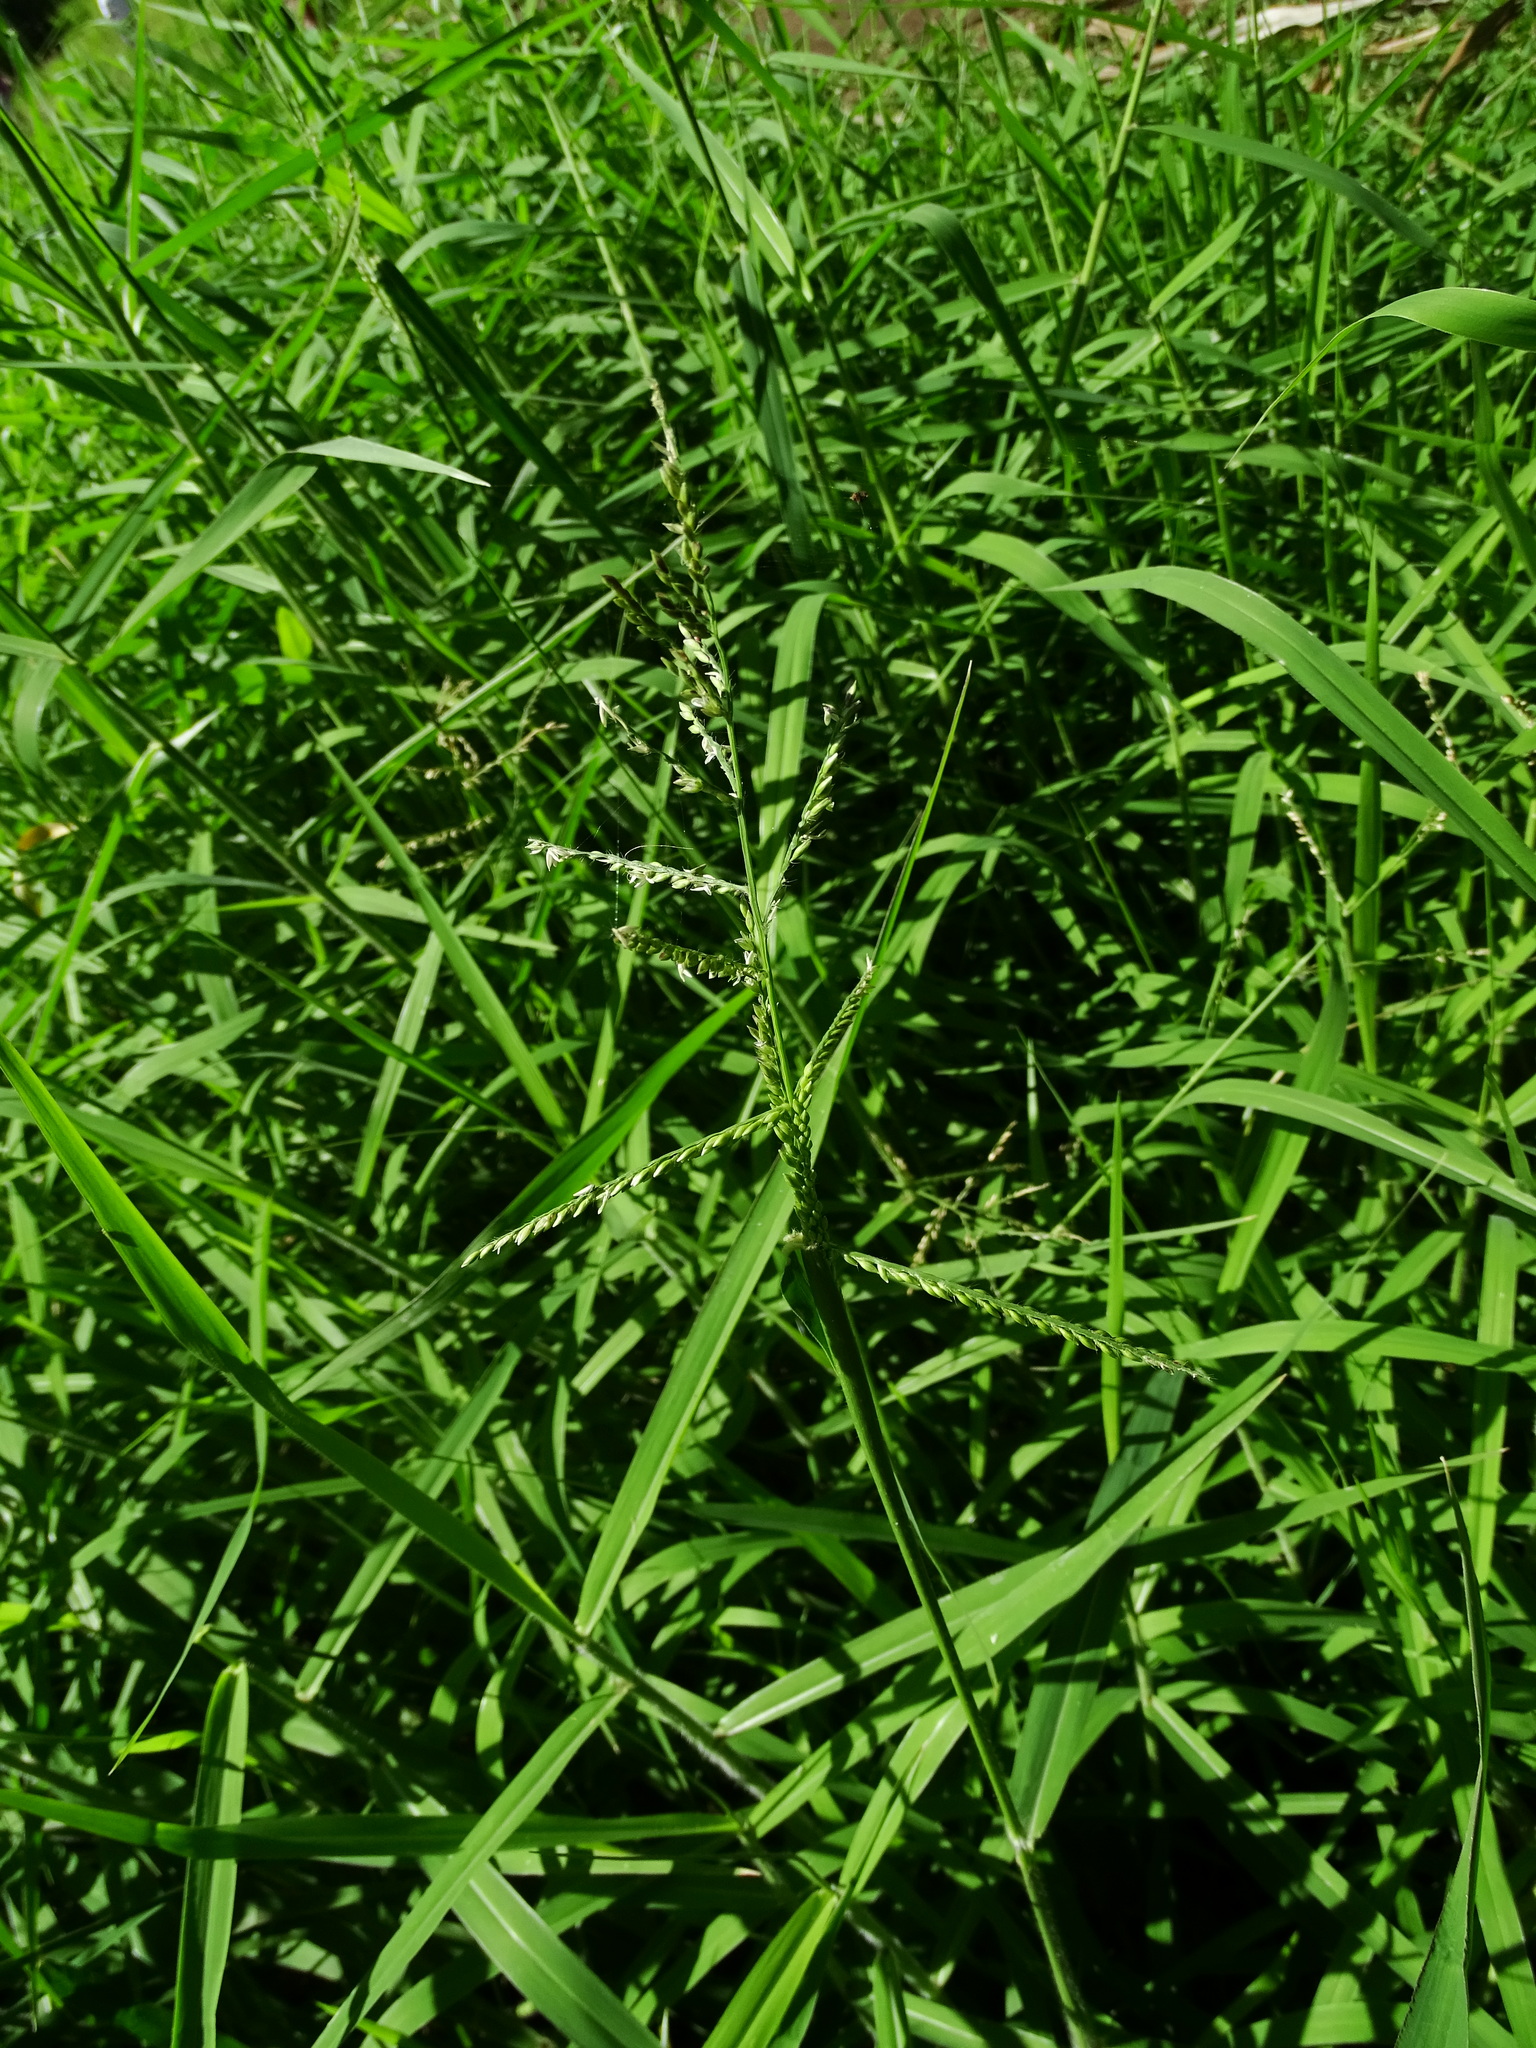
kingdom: Plantae
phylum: Tracheophyta
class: Liliopsida
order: Poales
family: Poaceae
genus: Urochloa
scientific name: Urochloa mutica
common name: Para grass
